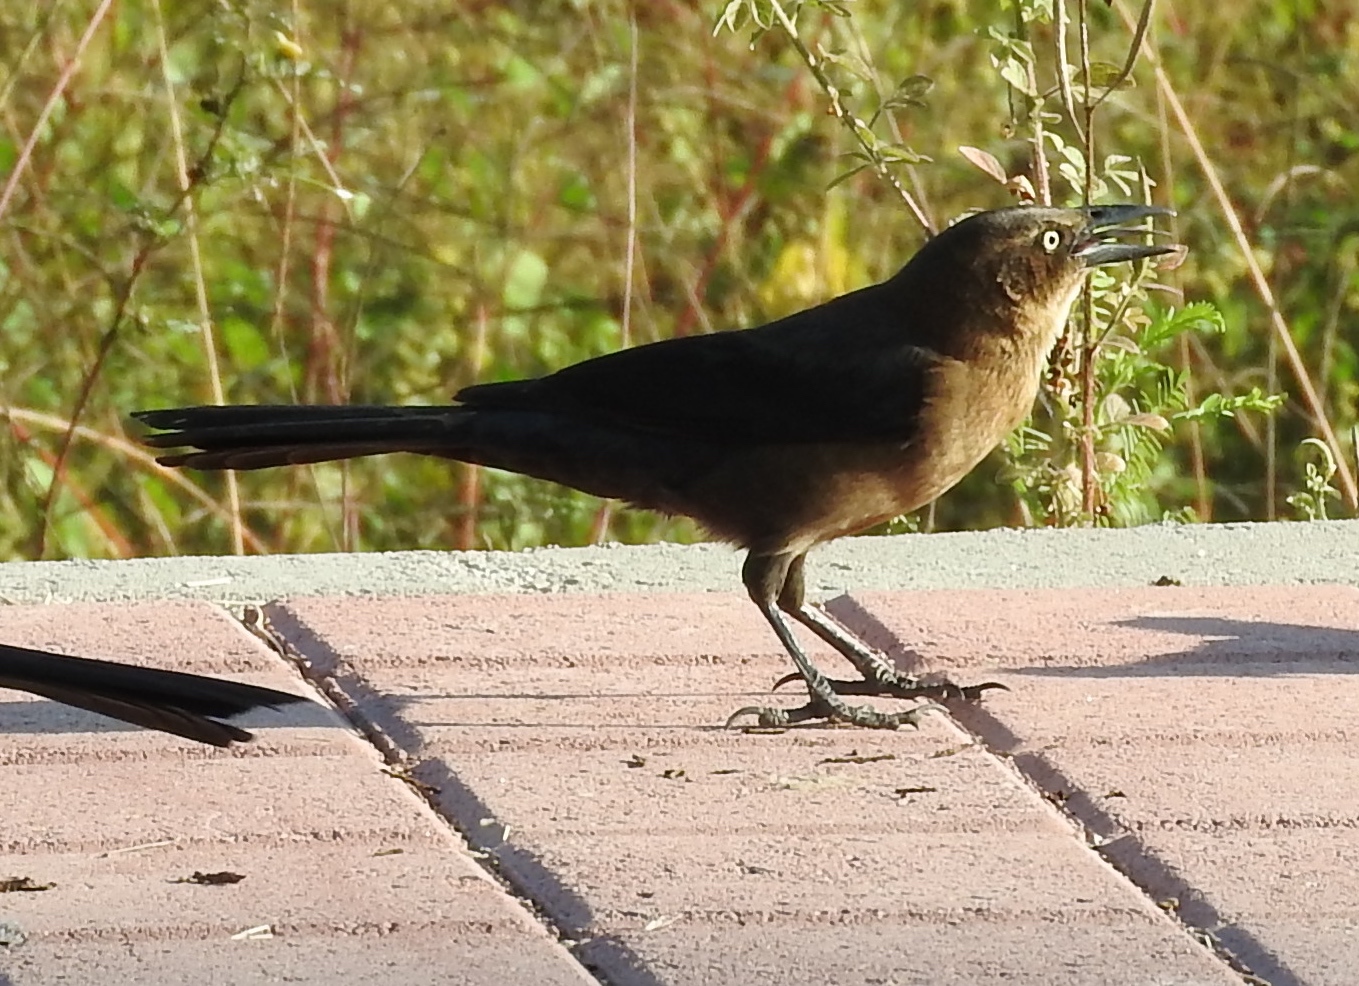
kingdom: Animalia
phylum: Chordata
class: Aves
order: Passeriformes
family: Icteridae
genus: Quiscalus
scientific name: Quiscalus mexicanus
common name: Great-tailed grackle
